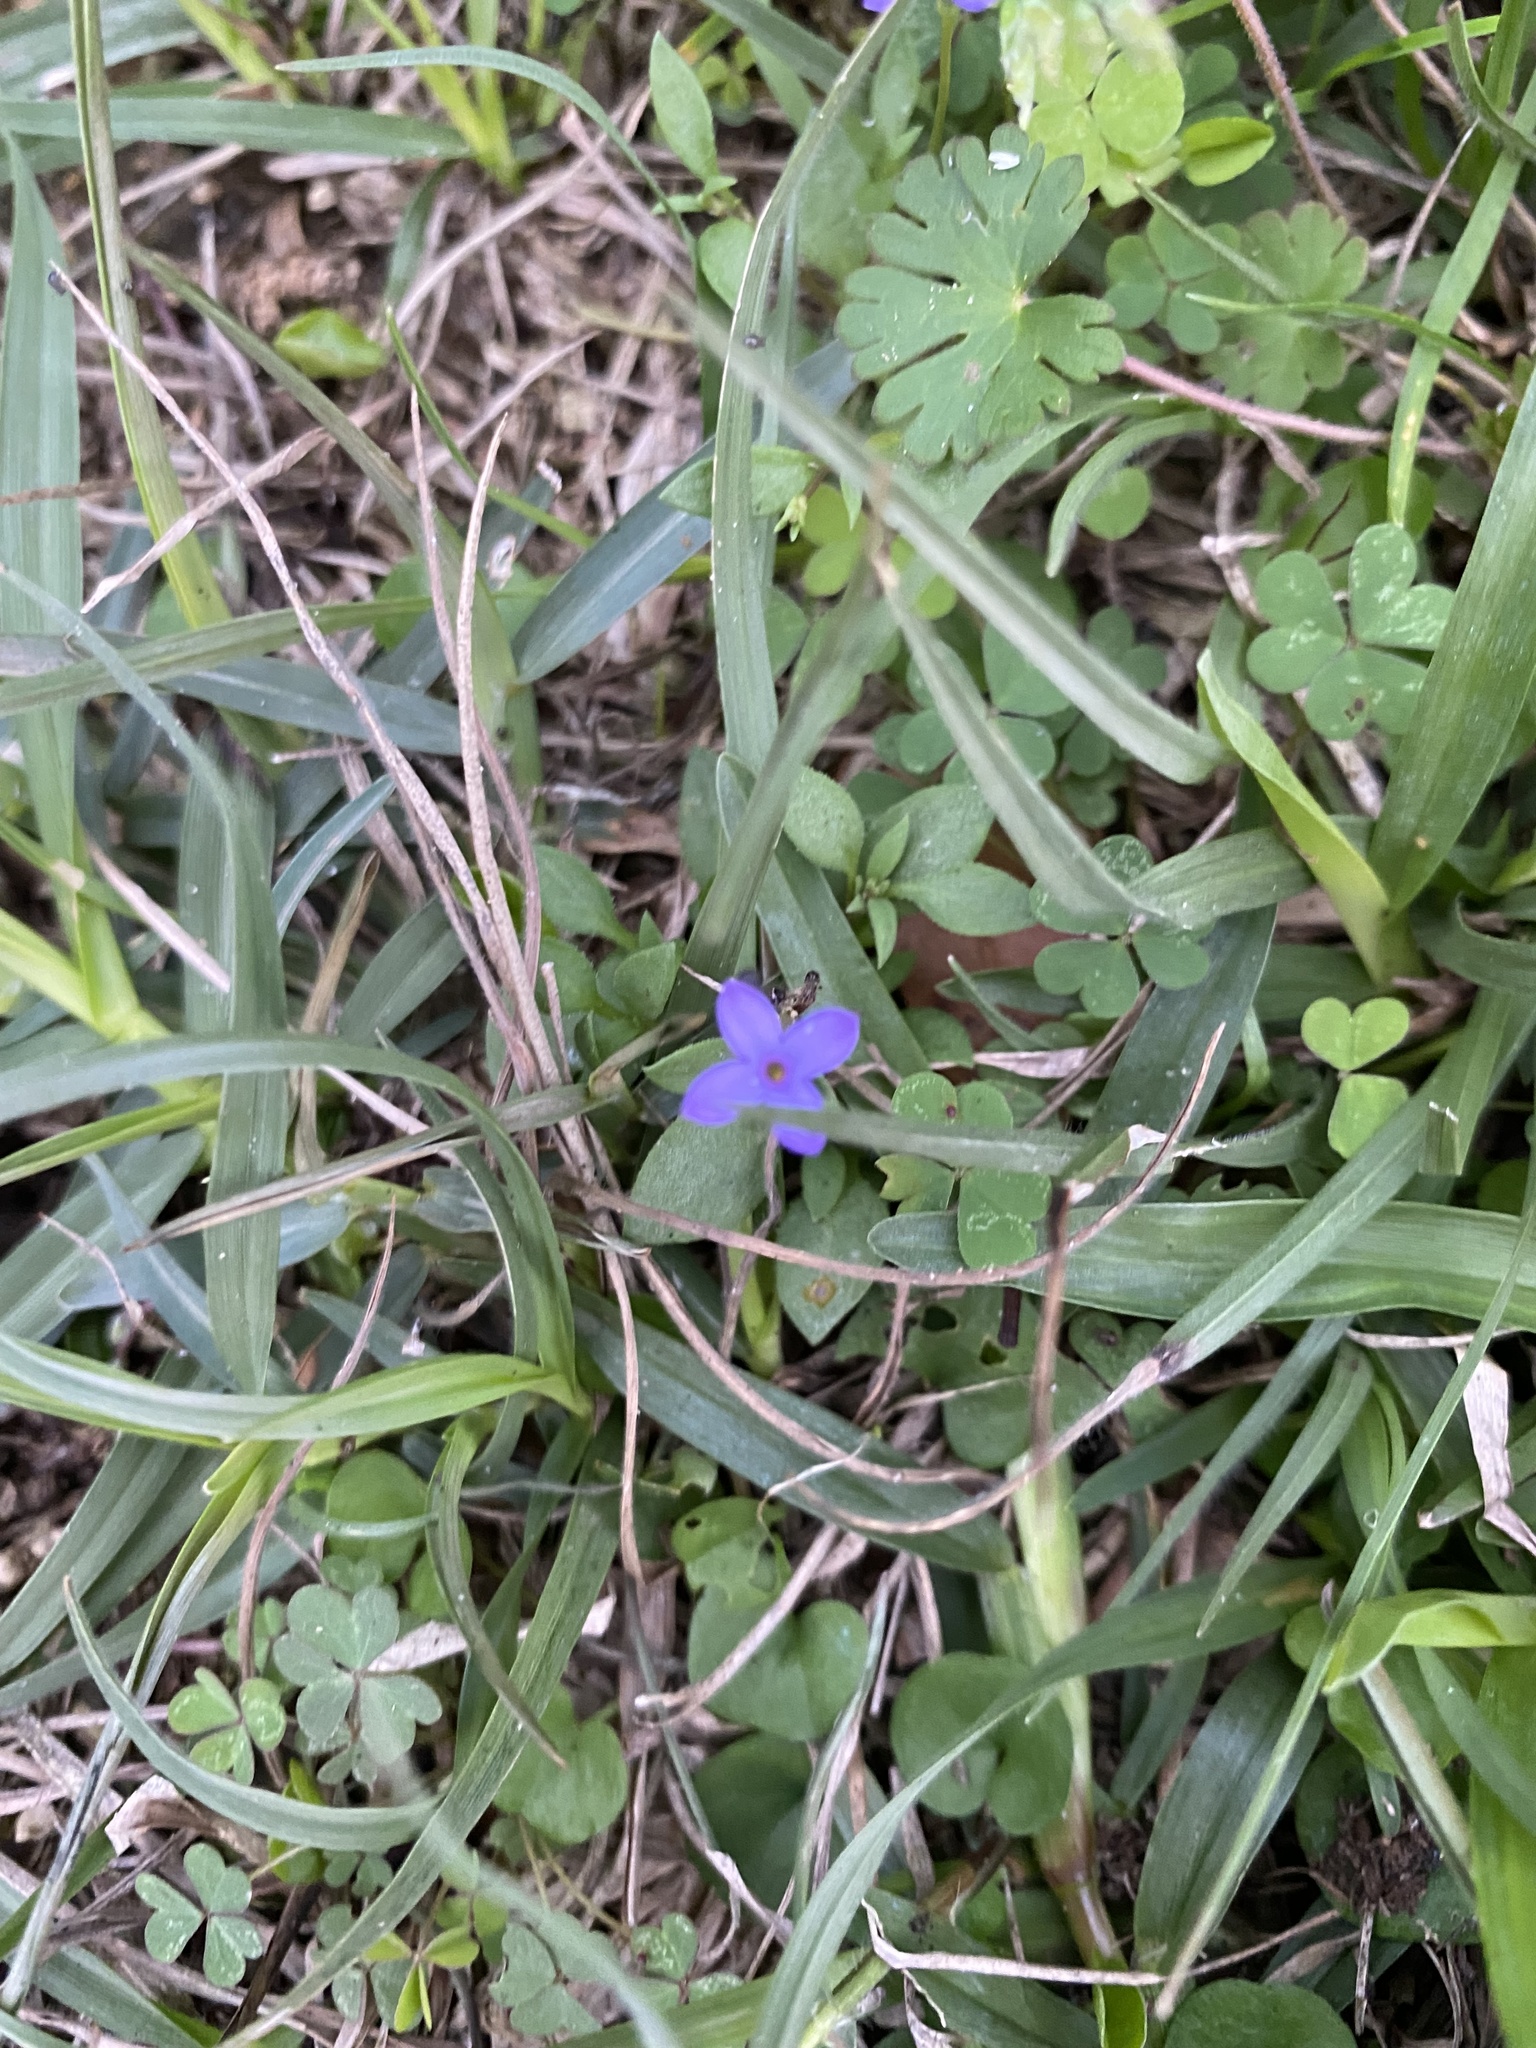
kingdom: Plantae
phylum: Tracheophyta
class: Magnoliopsida
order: Gentianales
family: Rubiaceae
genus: Houstonia
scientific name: Houstonia pusilla
